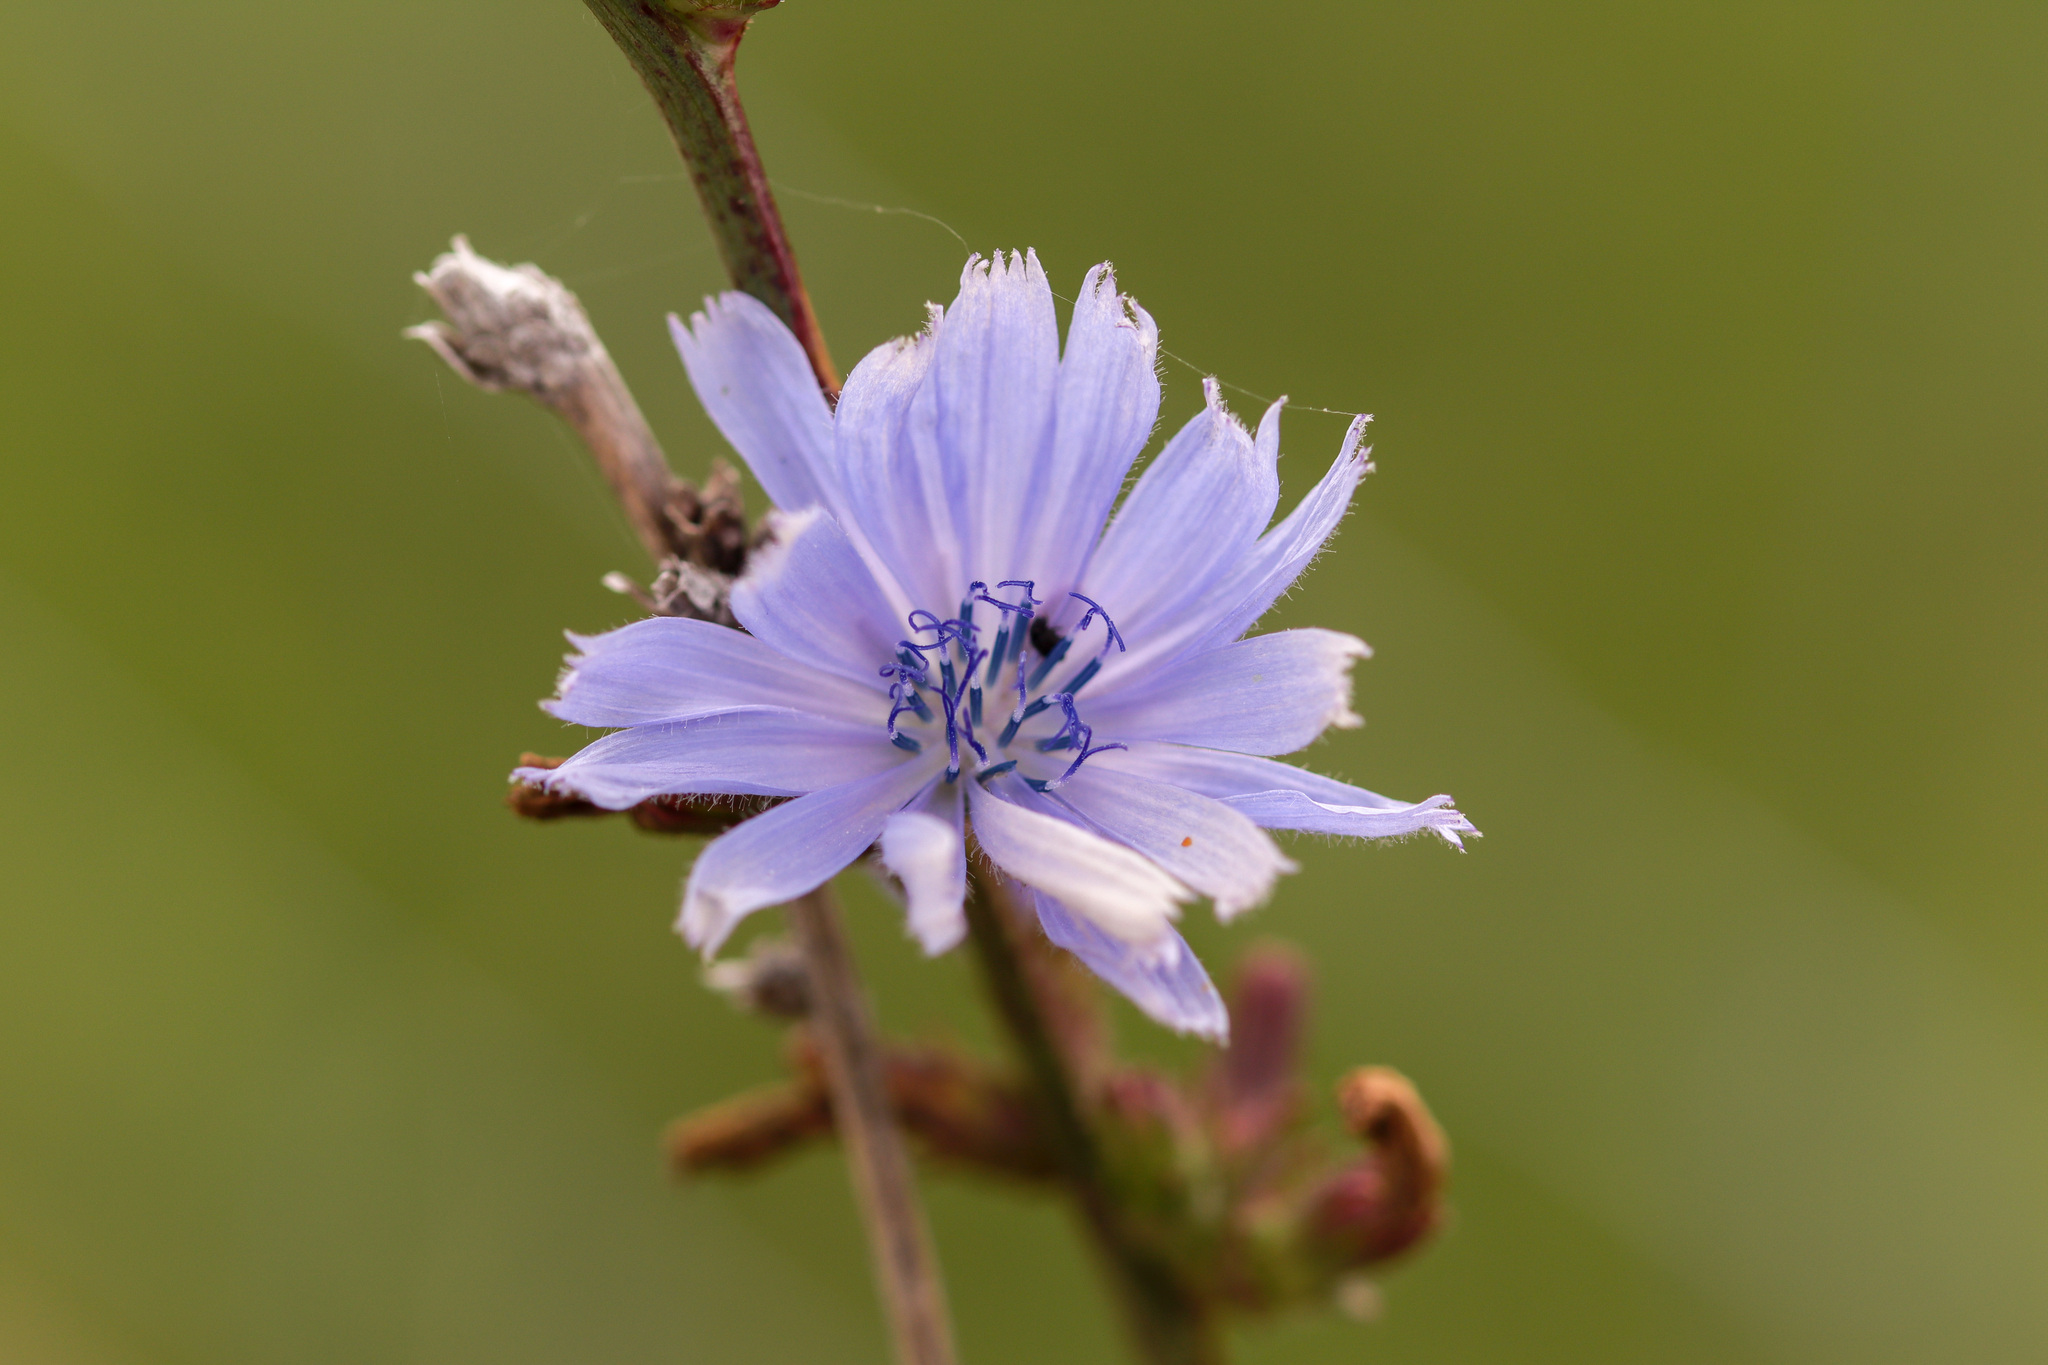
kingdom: Plantae
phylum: Tracheophyta
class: Magnoliopsida
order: Asterales
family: Asteraceae
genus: Cichorium
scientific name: Cichorium intybus
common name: Chicory
